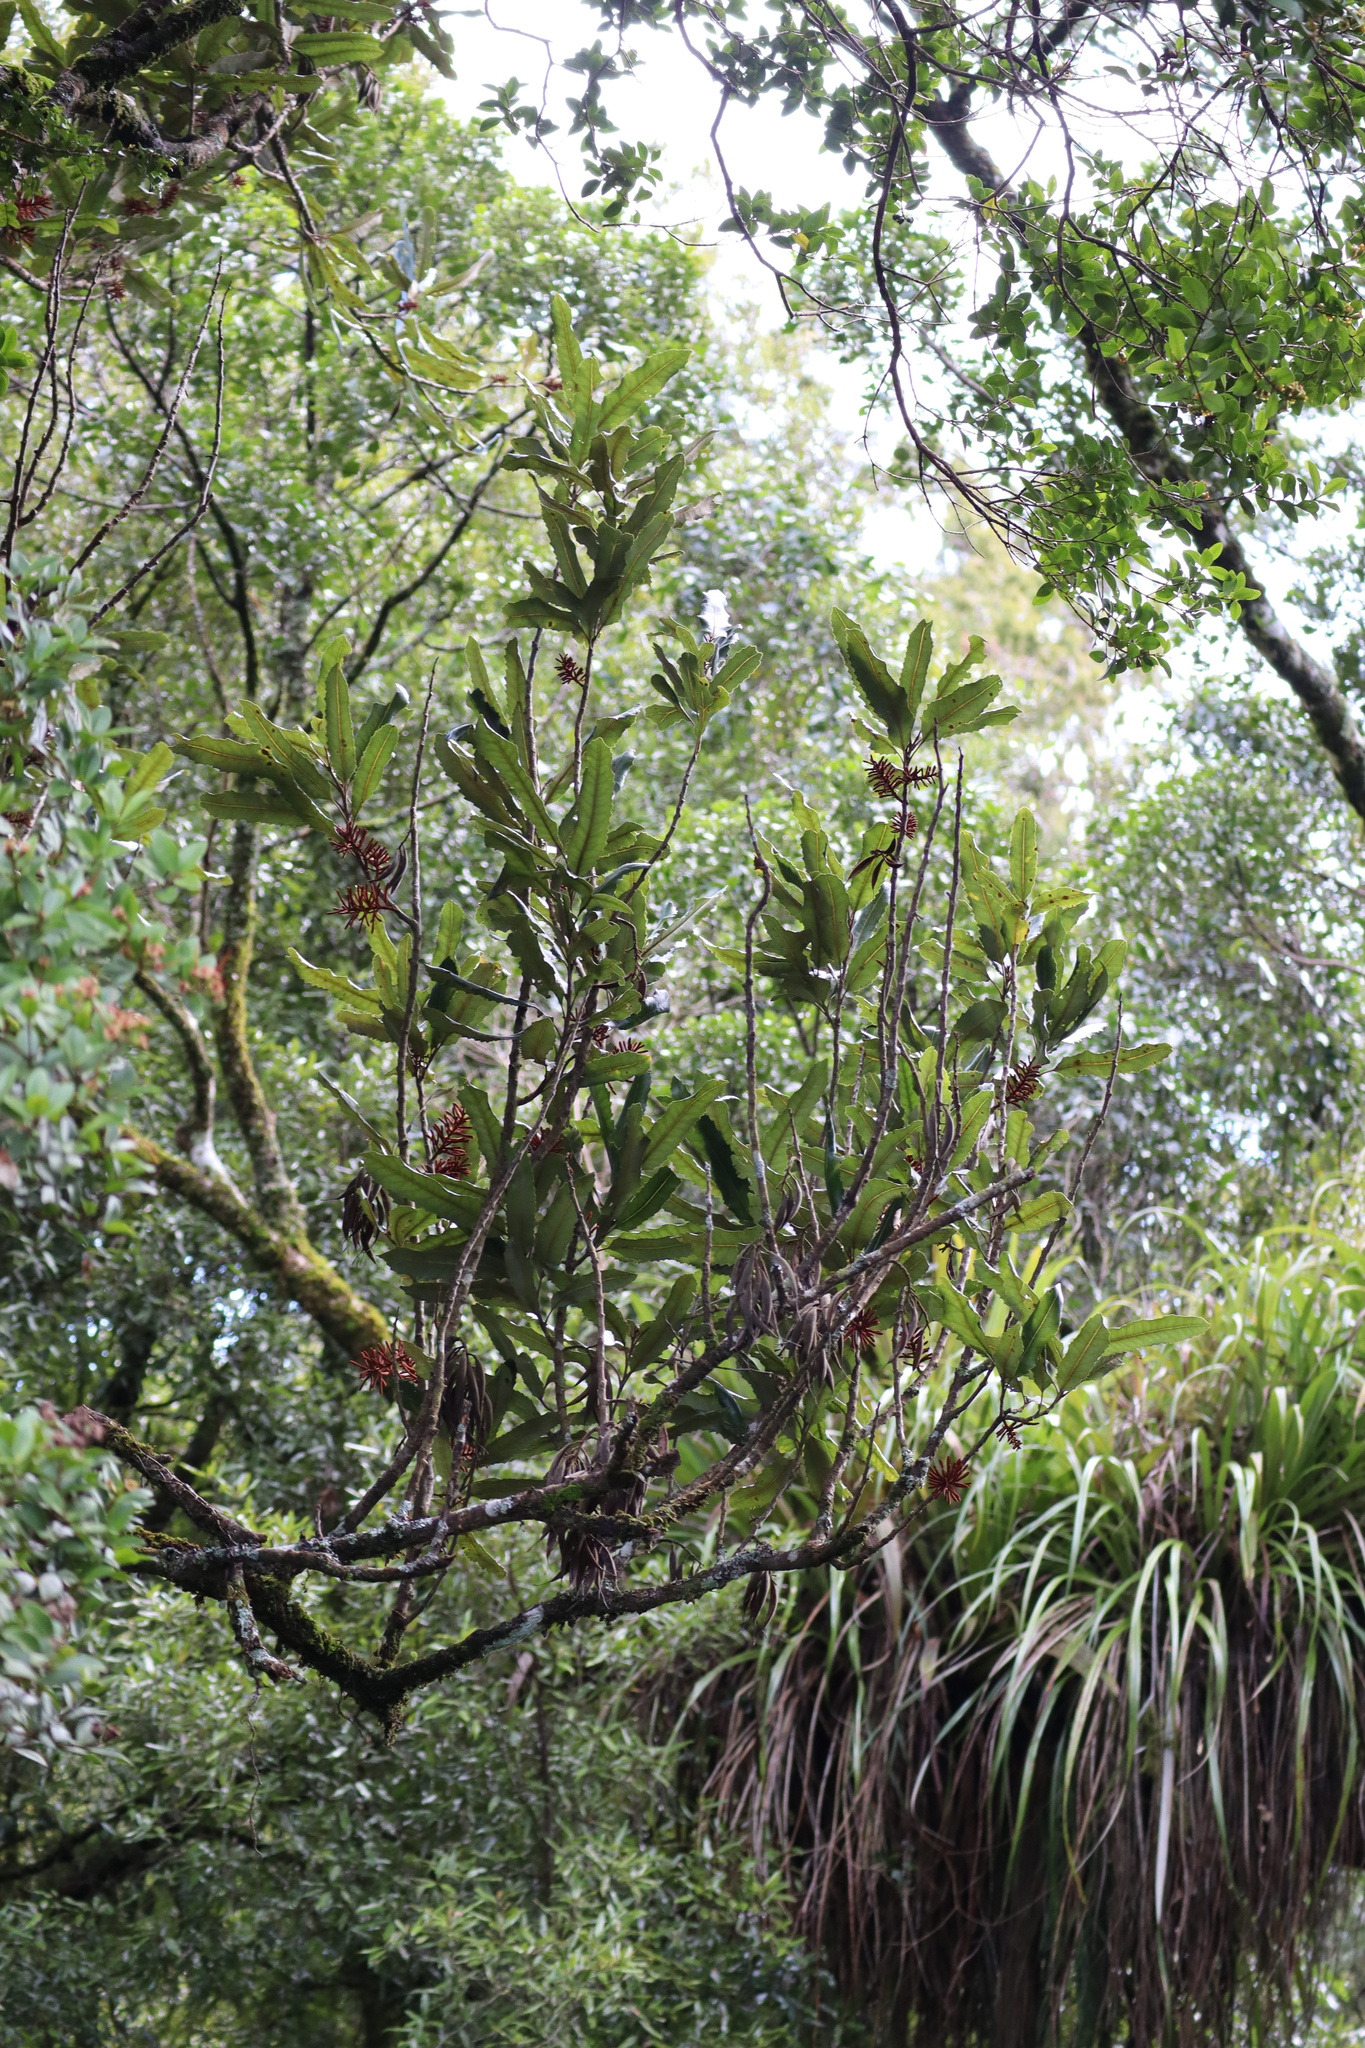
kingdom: Plantae
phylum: Tracheophyta
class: Magnoliopsida
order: Proteales
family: Proteaceae
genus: Knightia
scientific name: Knightia excelsa
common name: New zealand-honeysuckle
